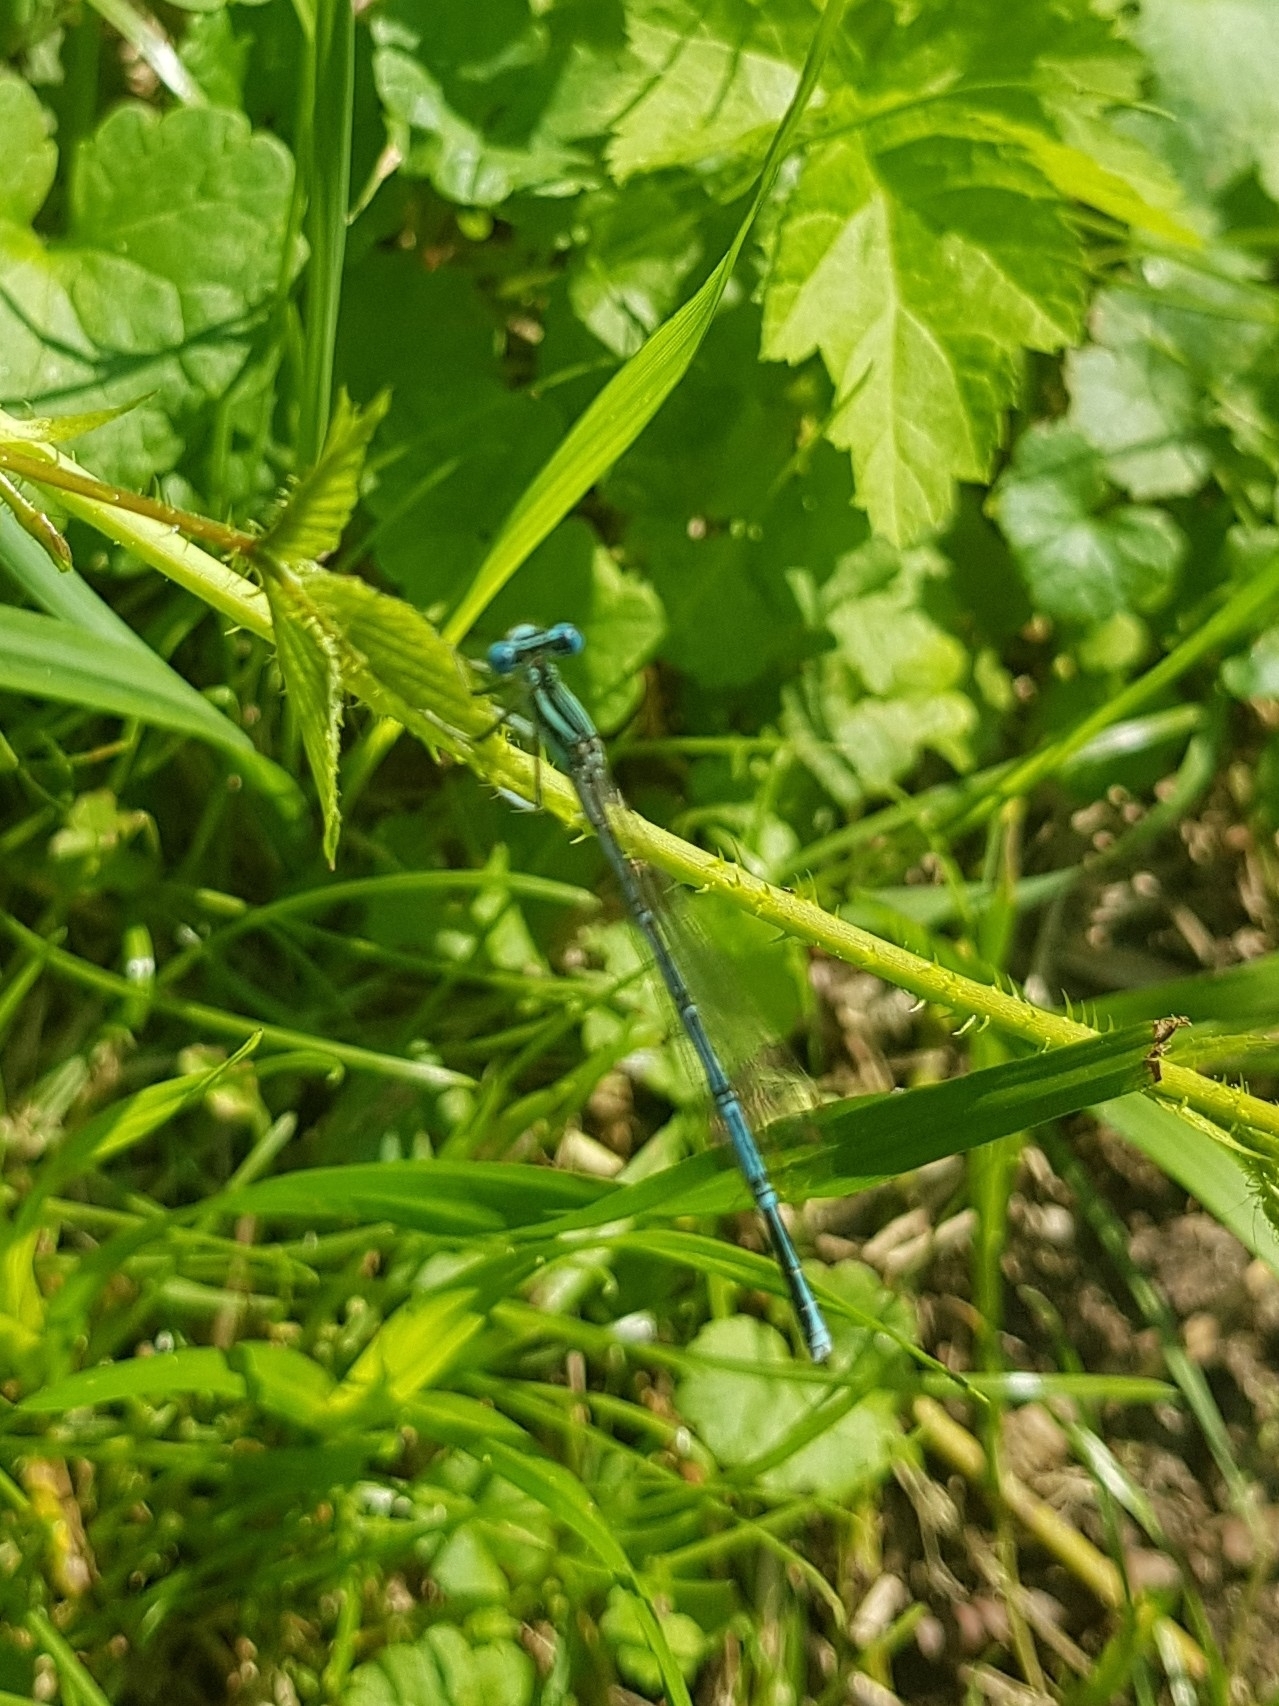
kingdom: Animalia
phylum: Arthropoda
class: Insecta
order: Odonata
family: Platycnemididae
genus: Platycnemis
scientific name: Platycnemis pennipes
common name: White-legged damselfly
